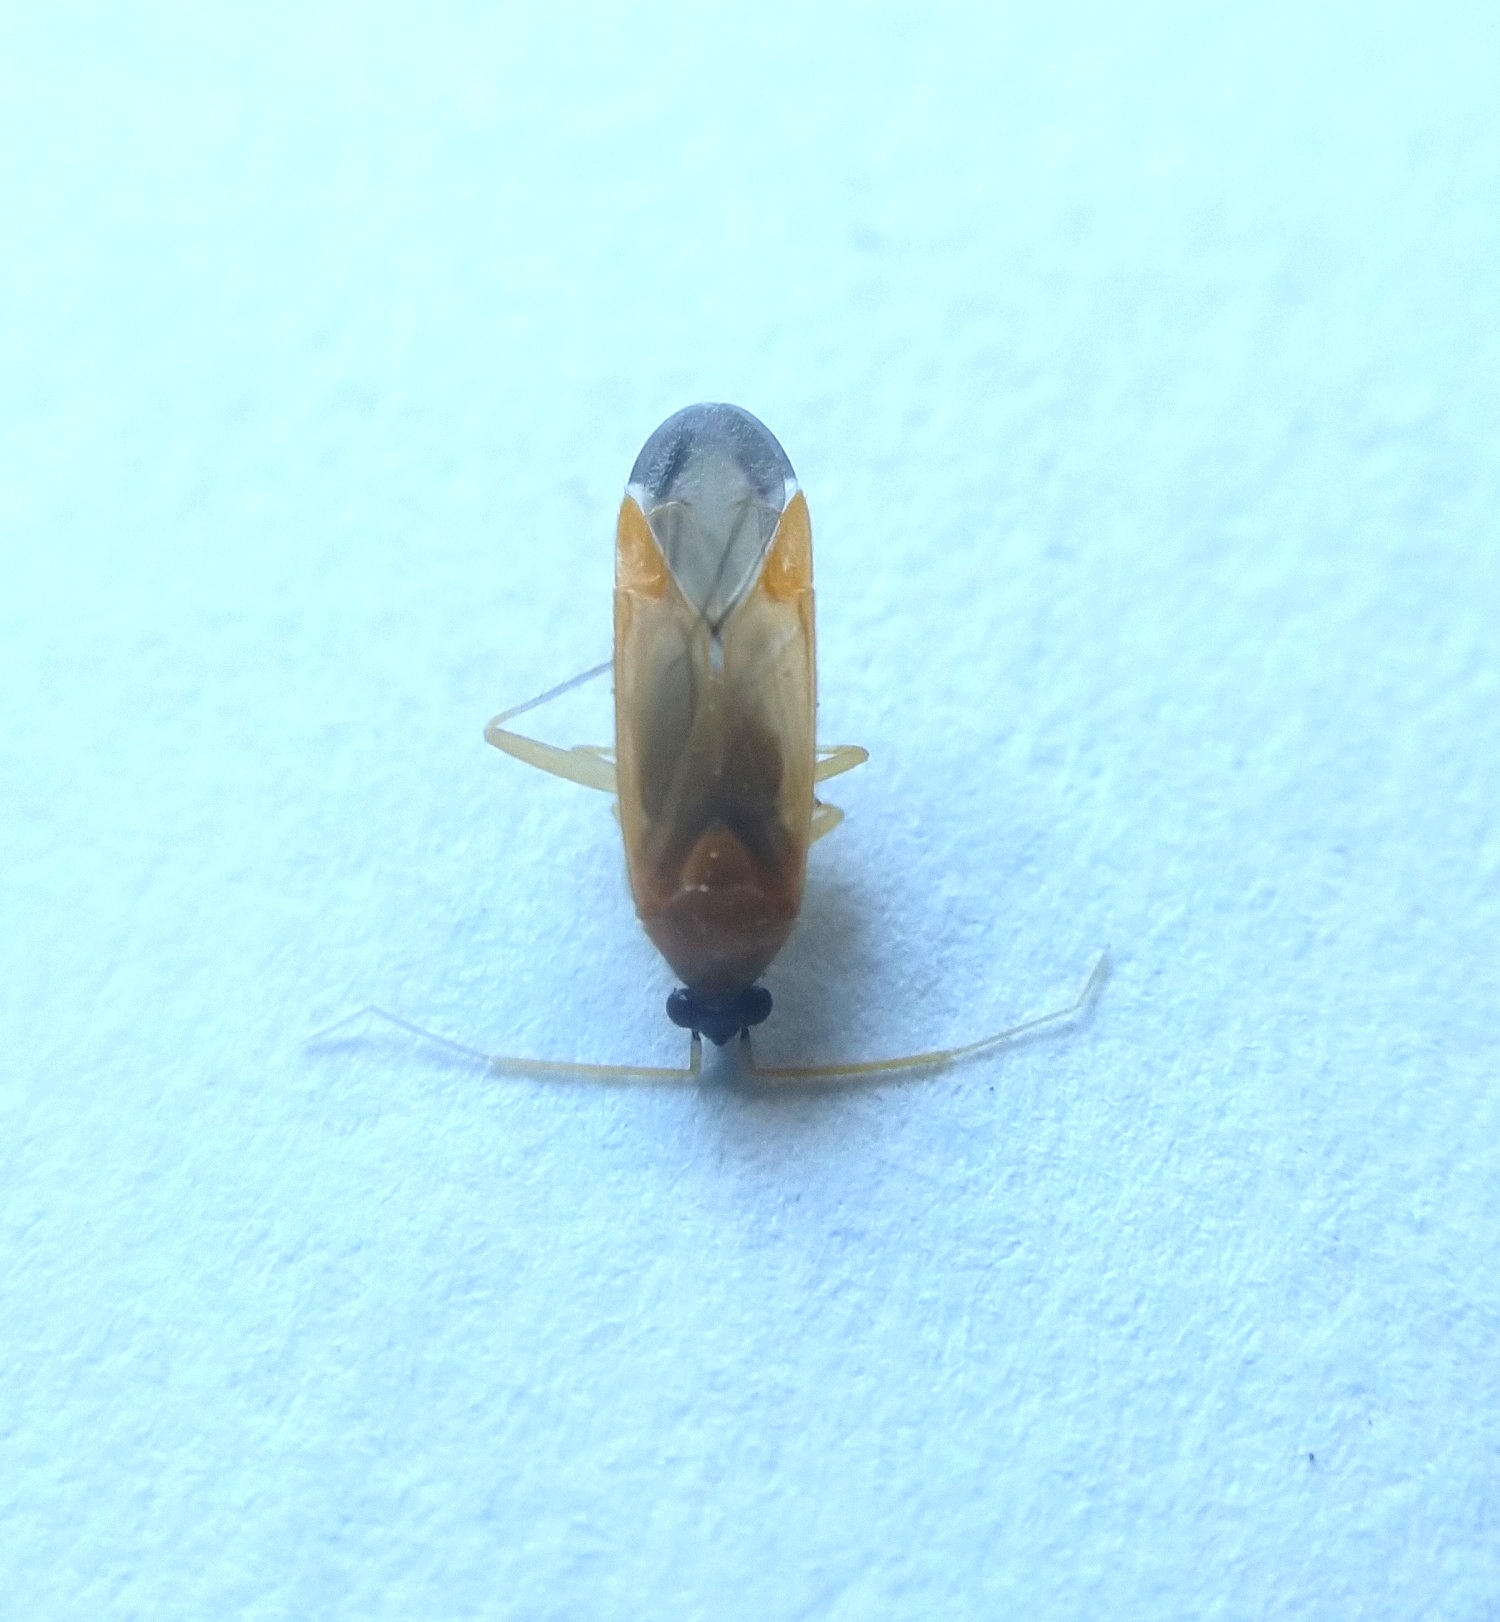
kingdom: Animalia
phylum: Arthropoda
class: Insecta
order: Hemiptera
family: Miridae
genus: Phylus
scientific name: Phylus melanocephalus
